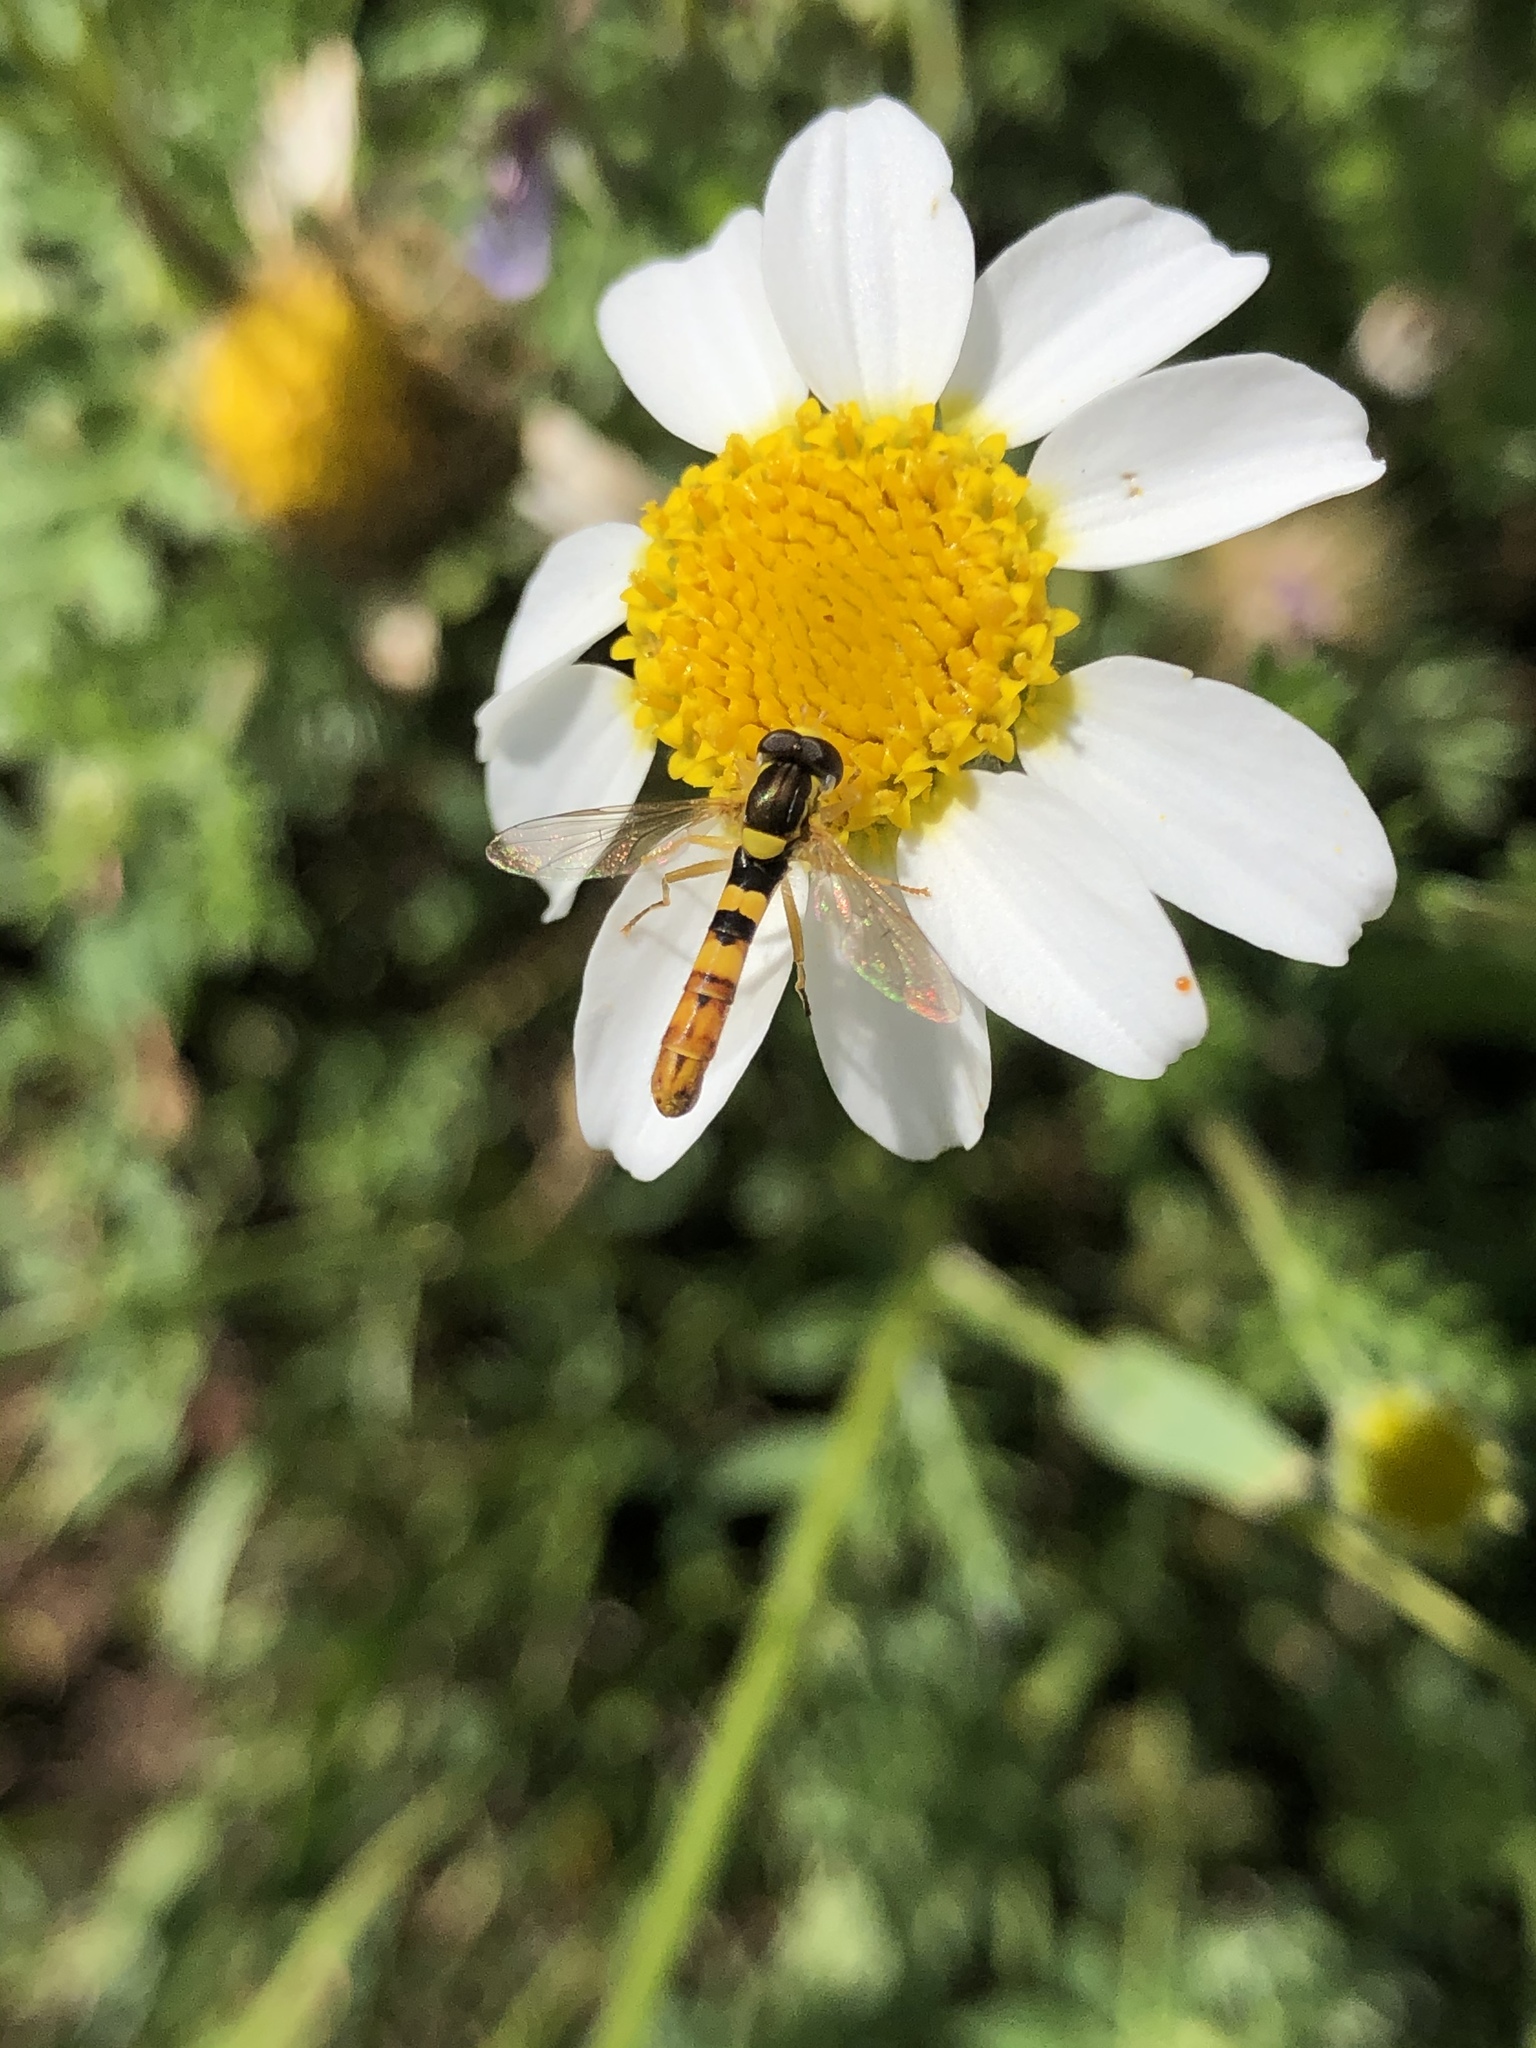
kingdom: Animalia
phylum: Arthropoda
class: Insecta
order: Diptera
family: Syrphidae
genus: Sphaerophoria
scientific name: Sphaerophoria scripta
